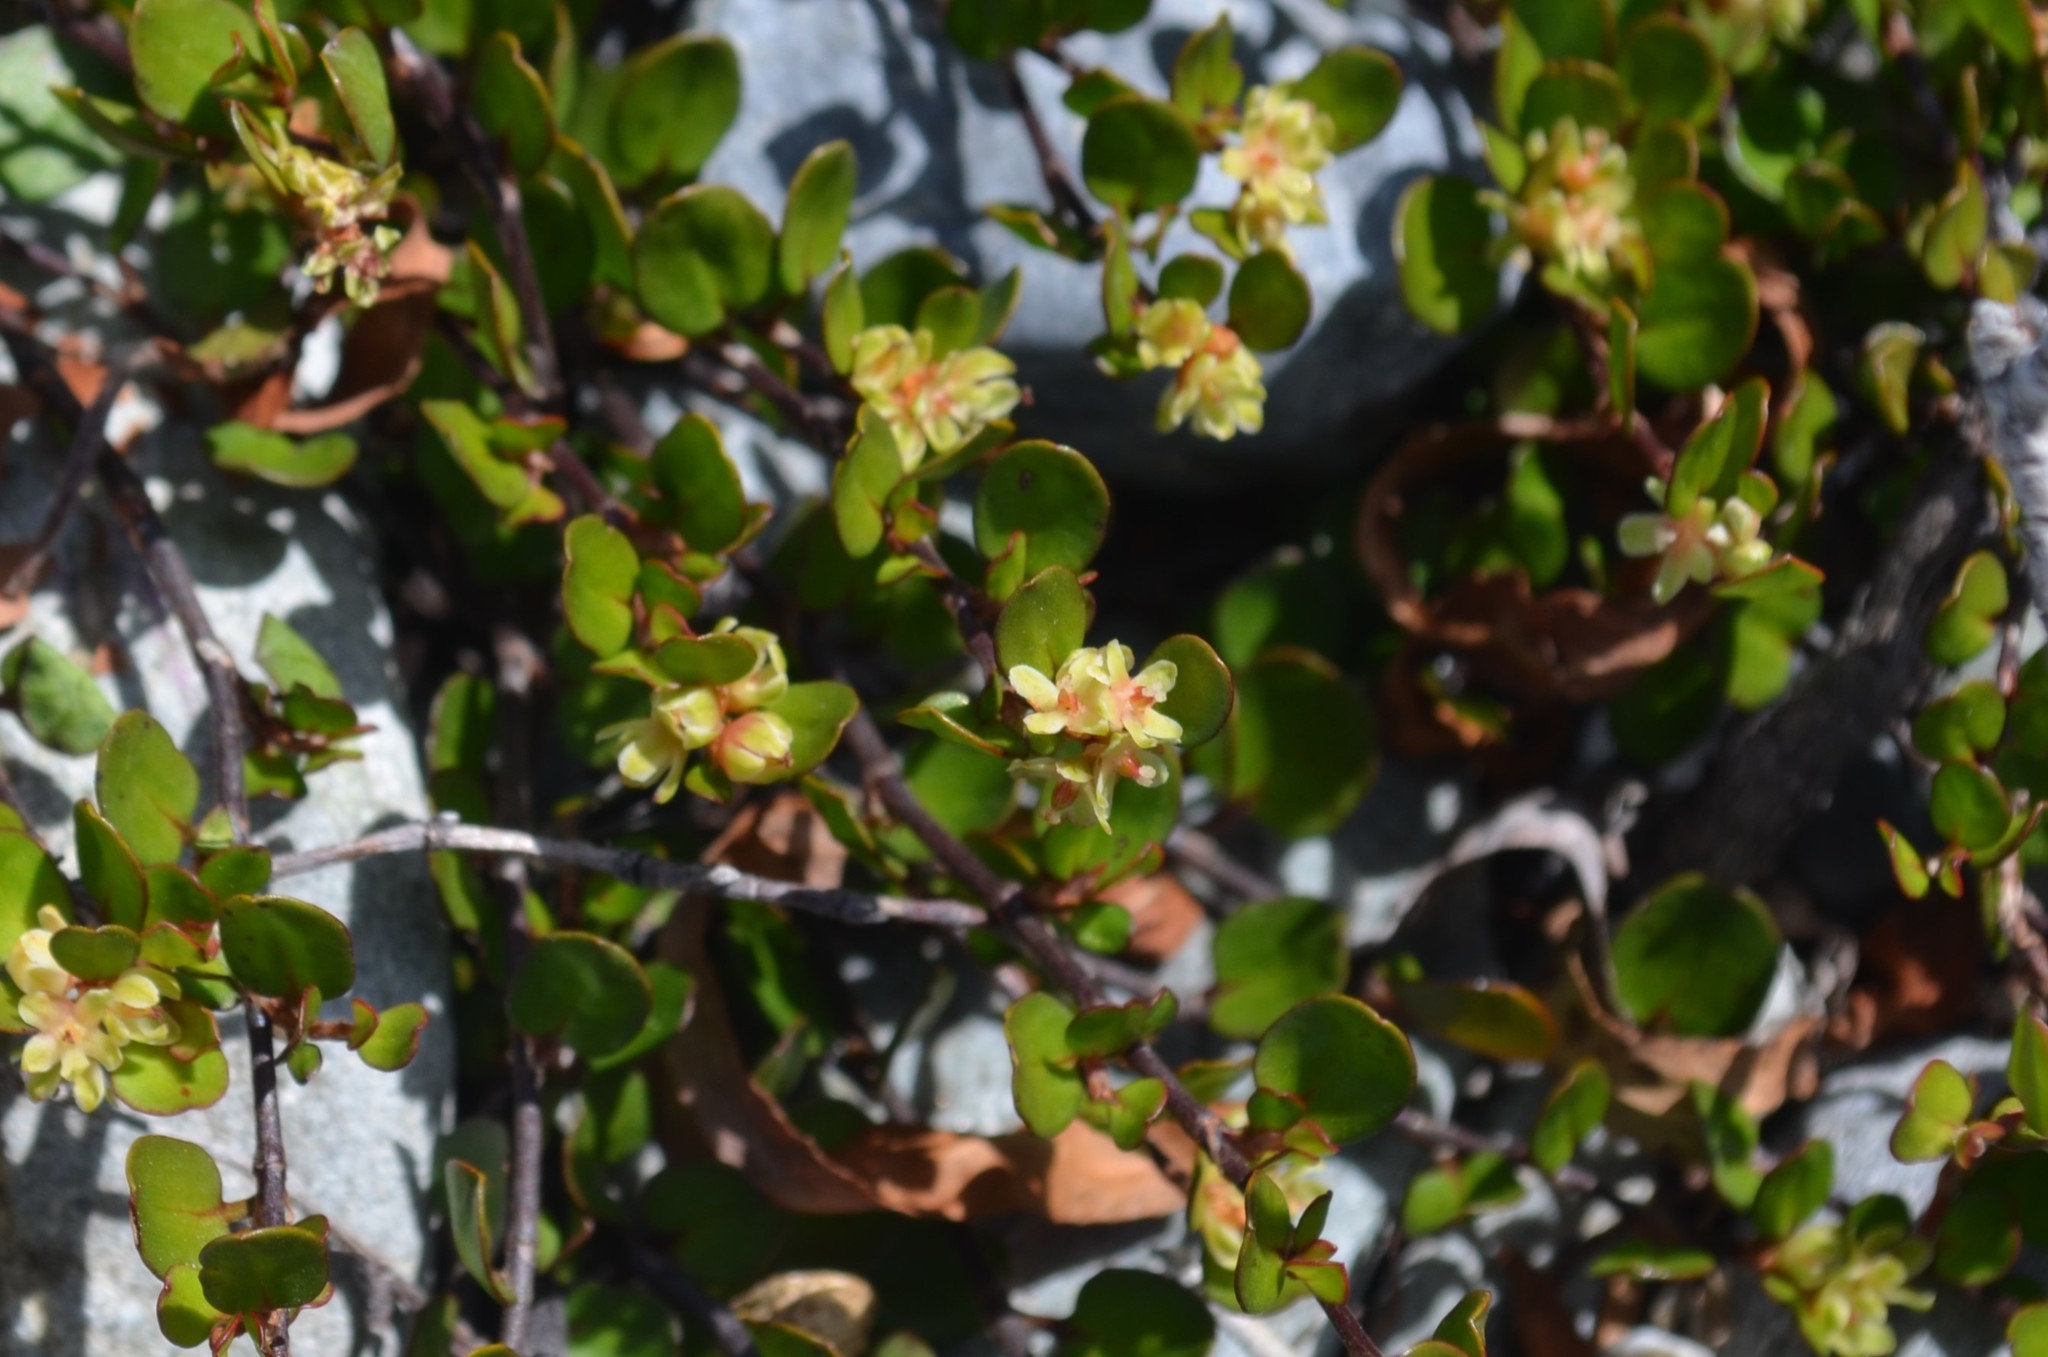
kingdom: Plantae
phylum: Tracheophyta
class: Magnoliopsida
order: Caryophyllales
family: Polygonaceae
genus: Muehlenbeckia
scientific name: Muehlenbeckia axillaris
